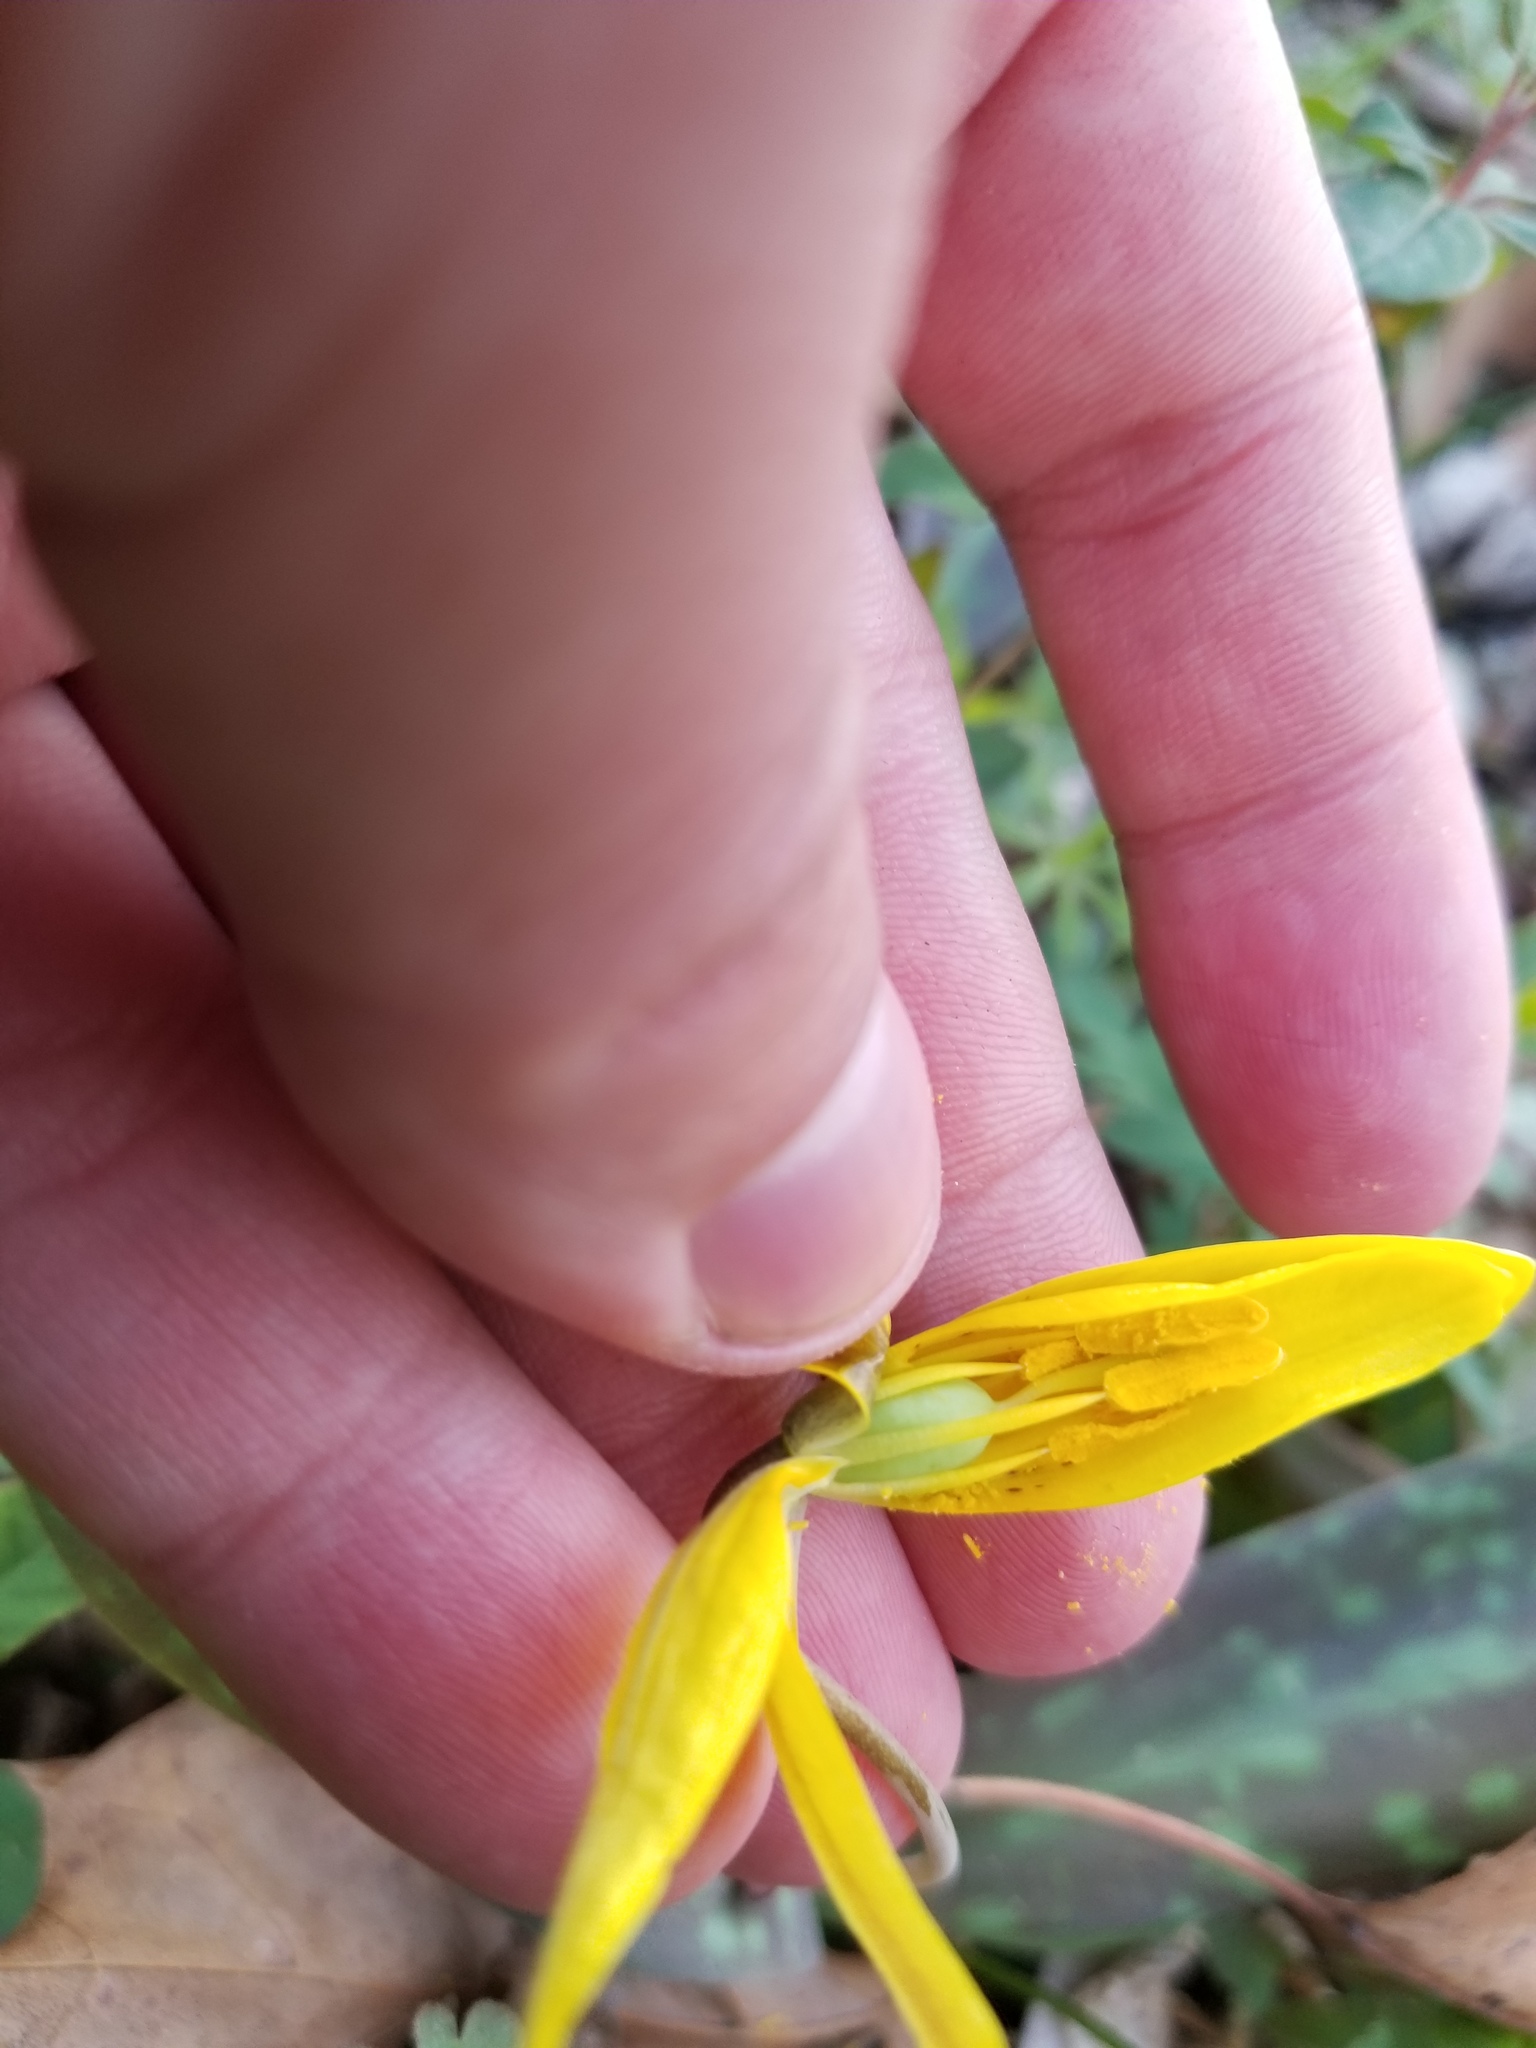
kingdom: Plantae
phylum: Tracheophyta
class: Liliopsida
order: Liliales
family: Liliaceae
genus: Erythronium
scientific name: Erythronium americanum
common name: Yellow adder's-tongue
